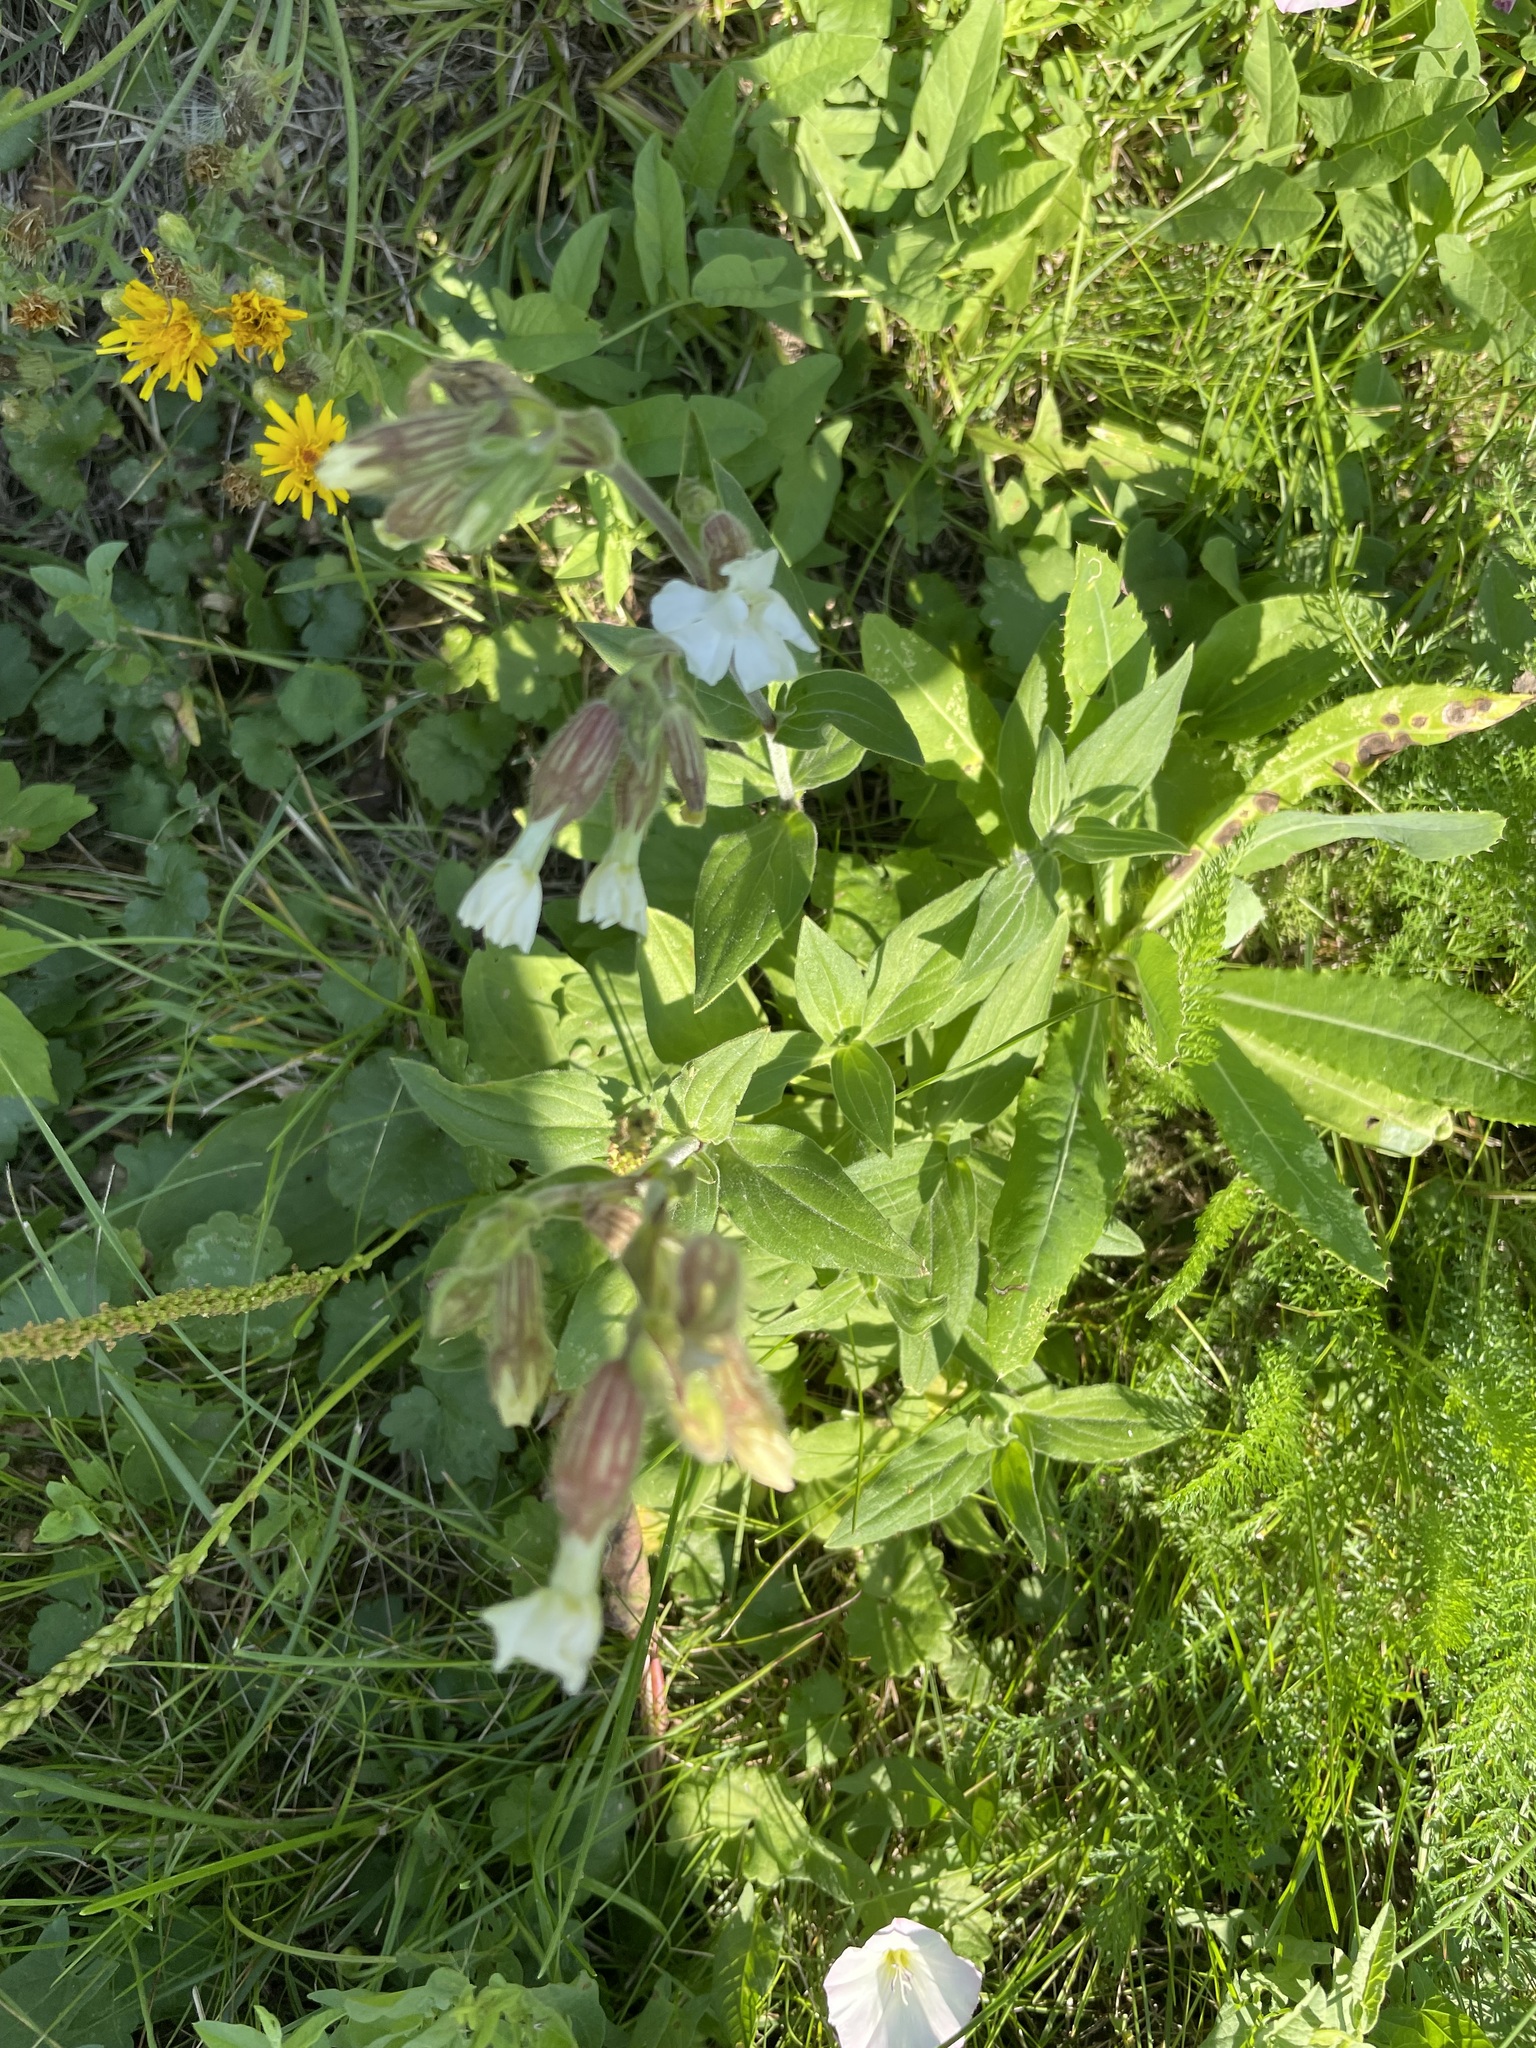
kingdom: Plantae
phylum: Tracheophyta
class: Magnoliopsida
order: Caryophyllales
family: Caryophyllaceae
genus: Silene
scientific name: Silene latifolia
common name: White campion
